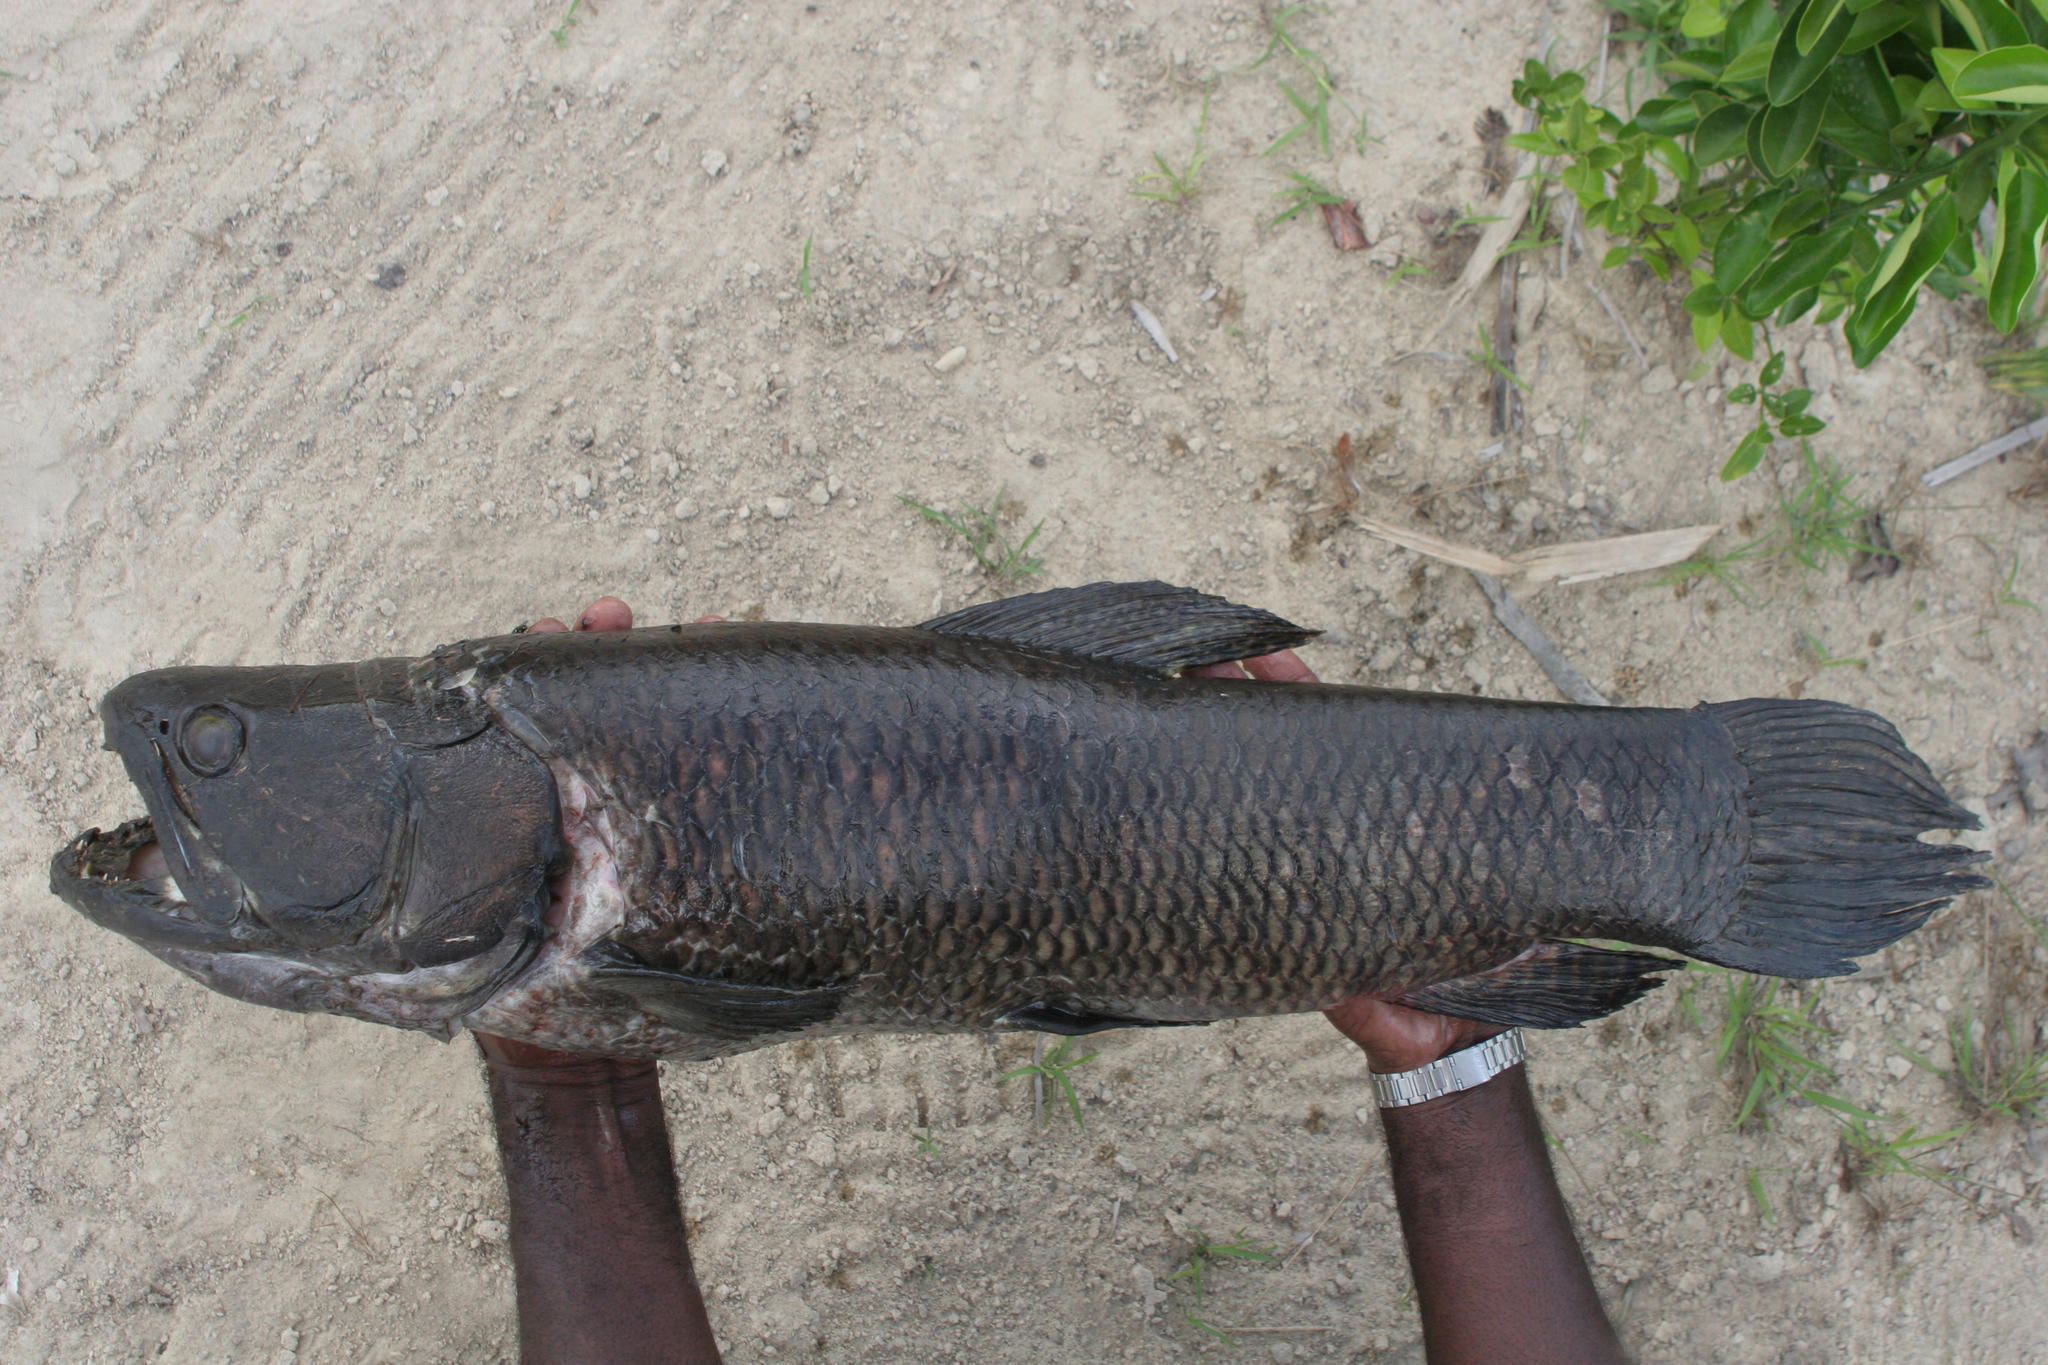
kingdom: Animalia
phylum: Chordata
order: Characiformes
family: Erythrinidae
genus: Hoplias
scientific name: Hoplias aimara
